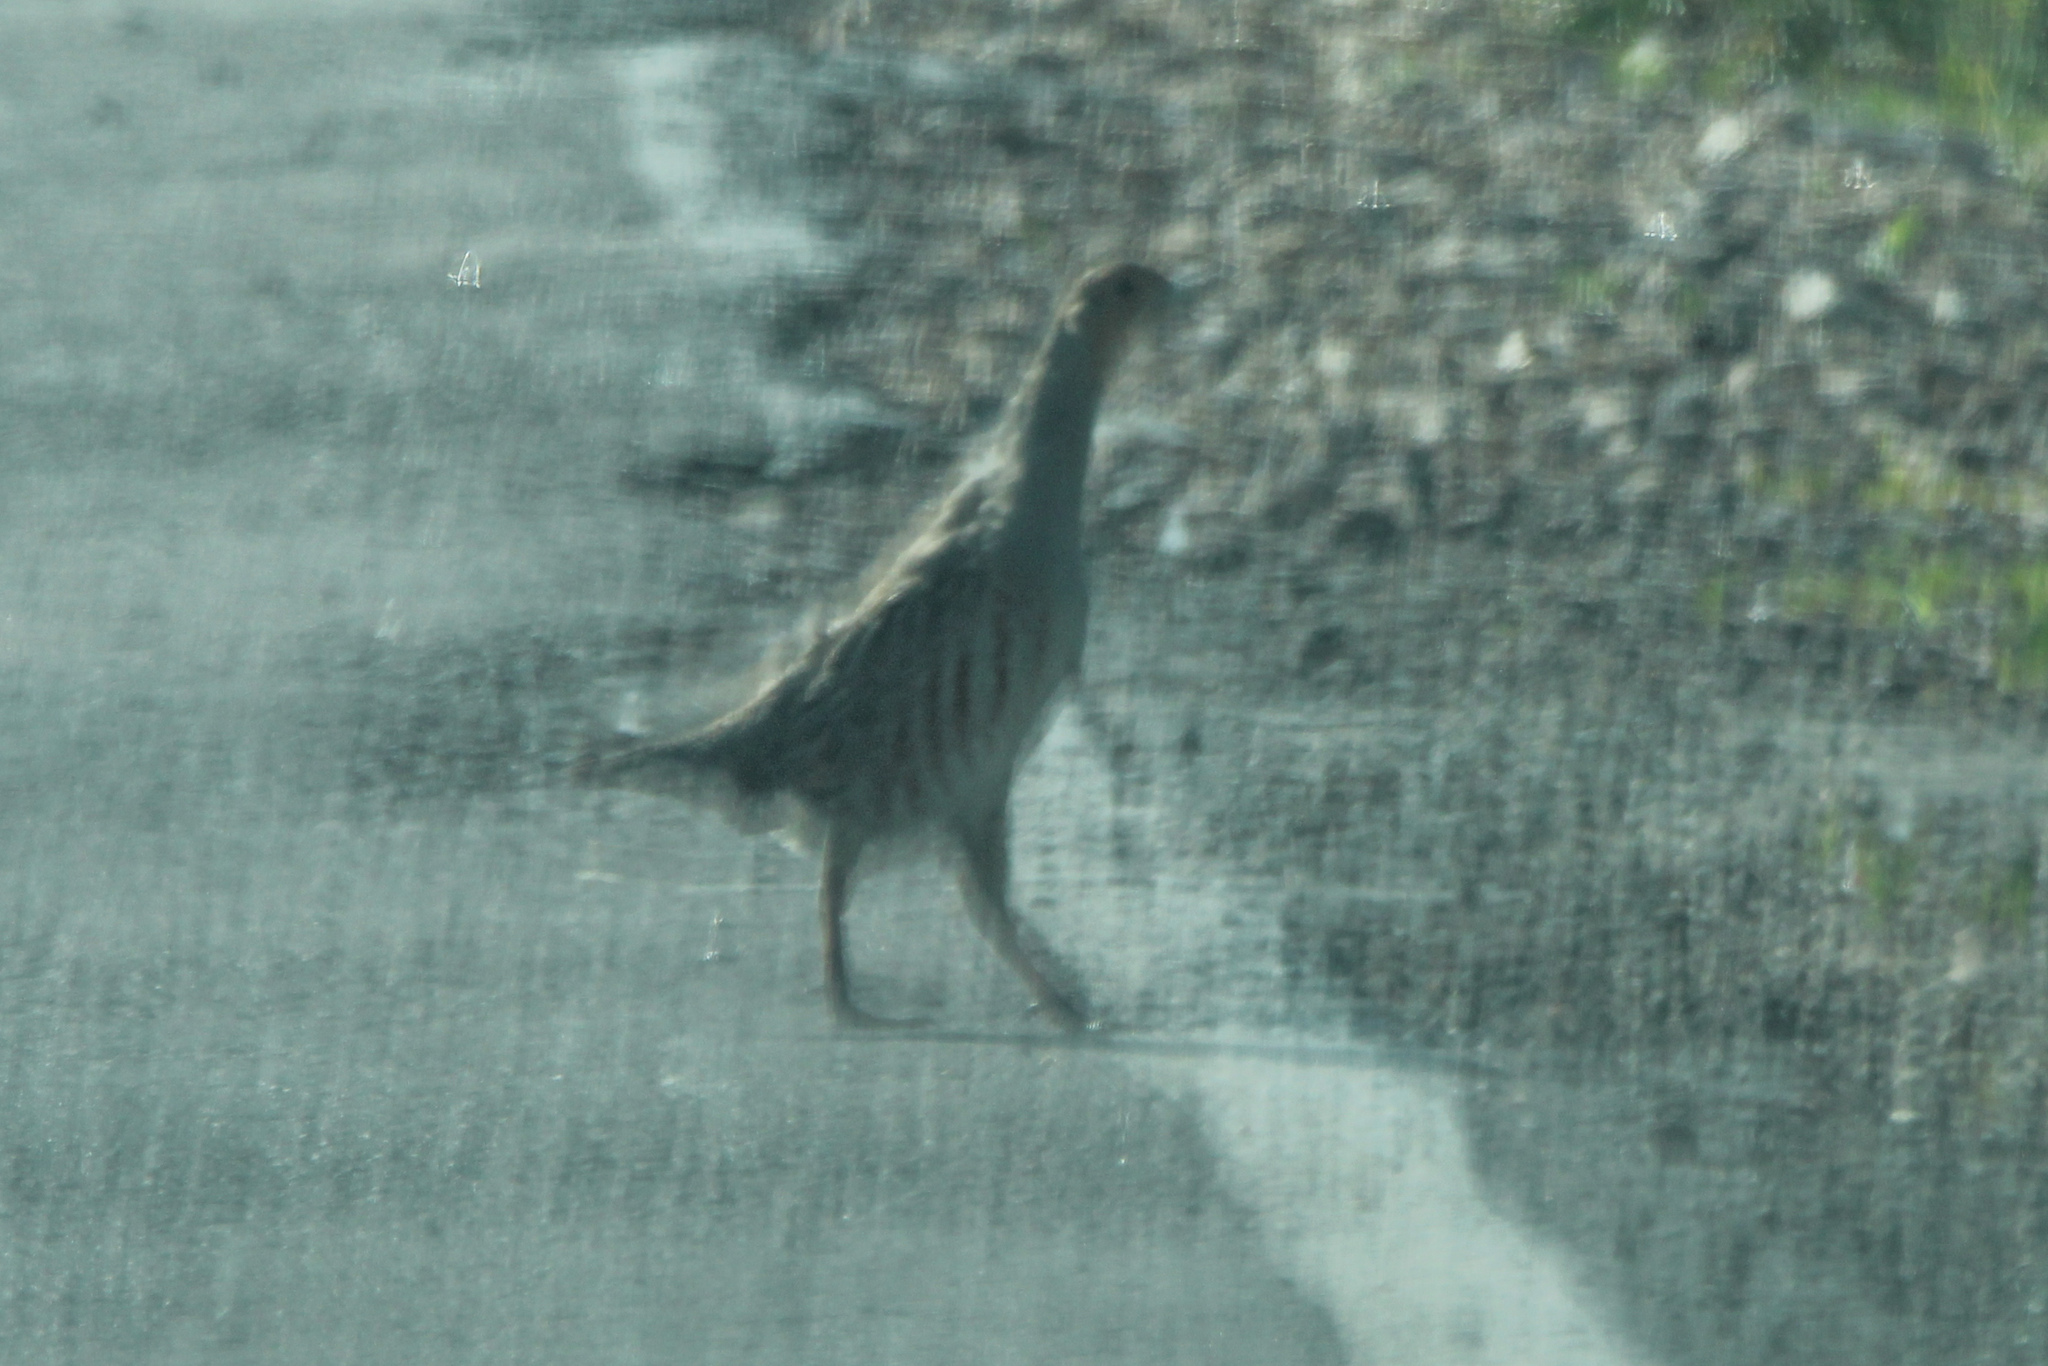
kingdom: Animalia
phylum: Chordata
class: Aves
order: Galliformes
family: Phasianidae
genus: Perdix
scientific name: Perdix perdix
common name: Grey partridge
